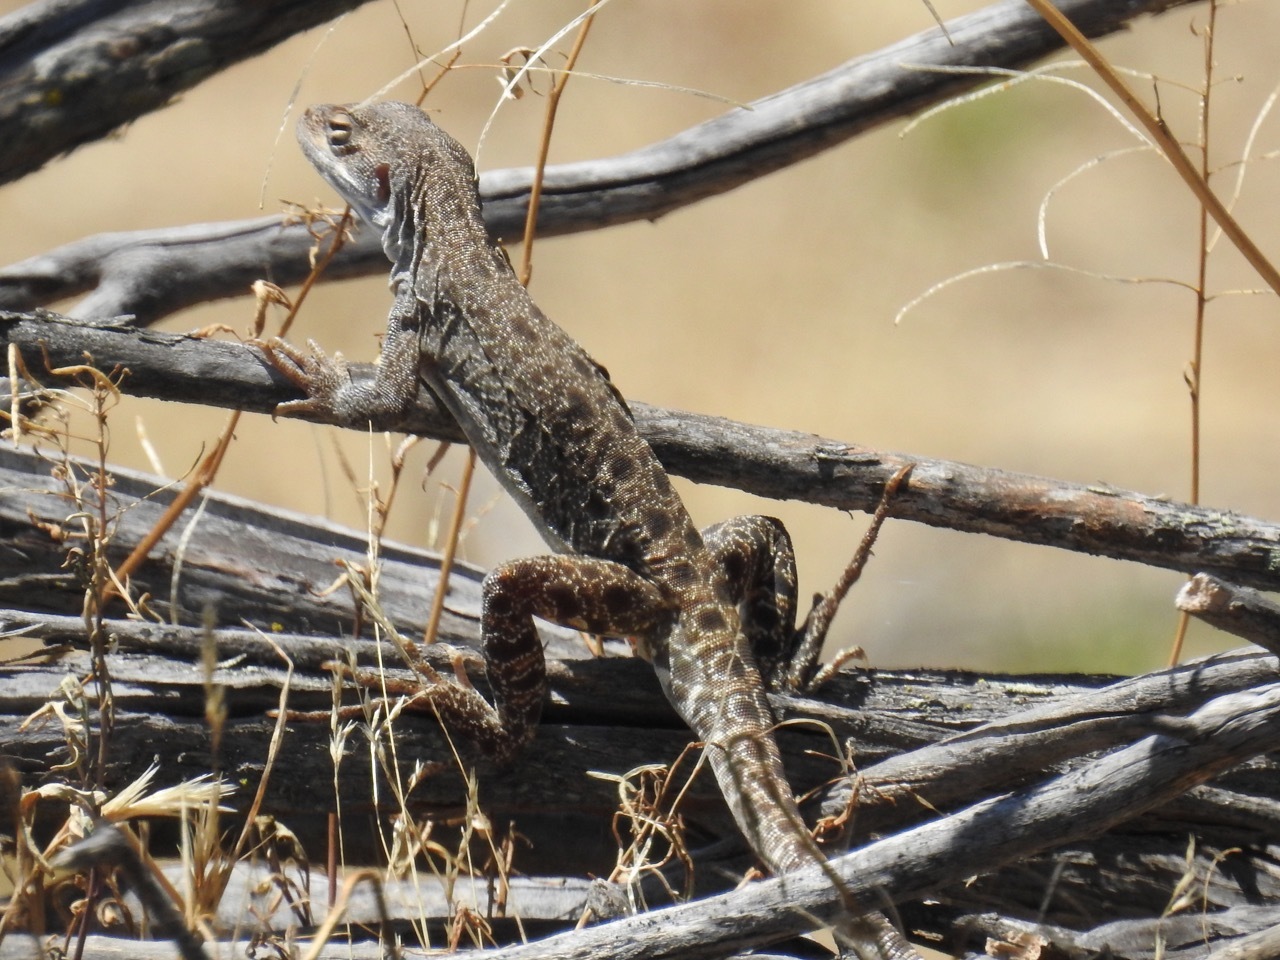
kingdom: Animalia
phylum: Chordata
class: Squamata
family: Crotaphytidae
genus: Gambelia
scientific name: Gambelia copeii
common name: Long-nosed leopard lizard
